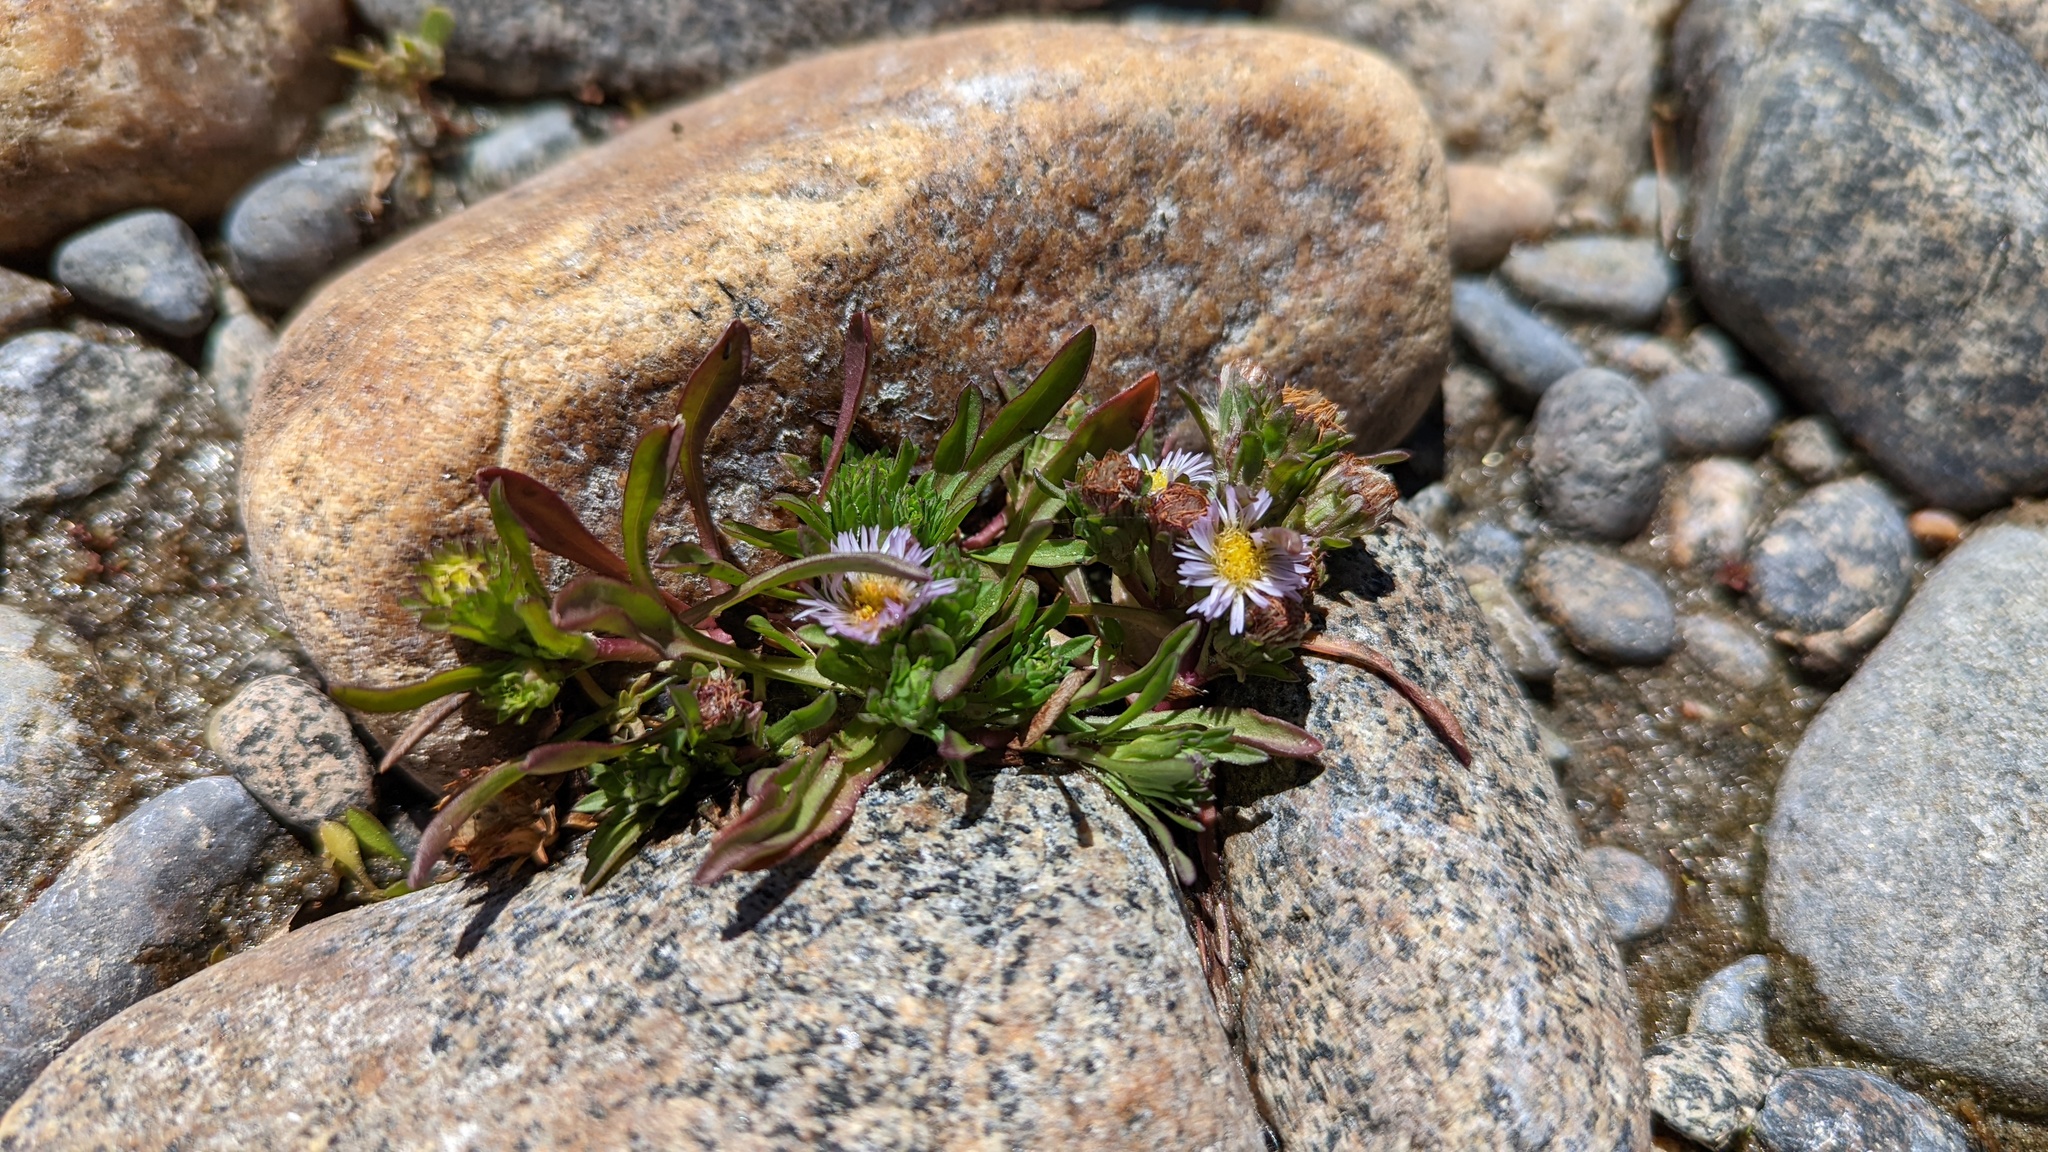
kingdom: Plantae
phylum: Tracheophyta
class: Magnoliopsida
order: Asterales
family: Asteraceae
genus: Symphyotrichum
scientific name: Symphyotrichum frondosum
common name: Leafy aster
